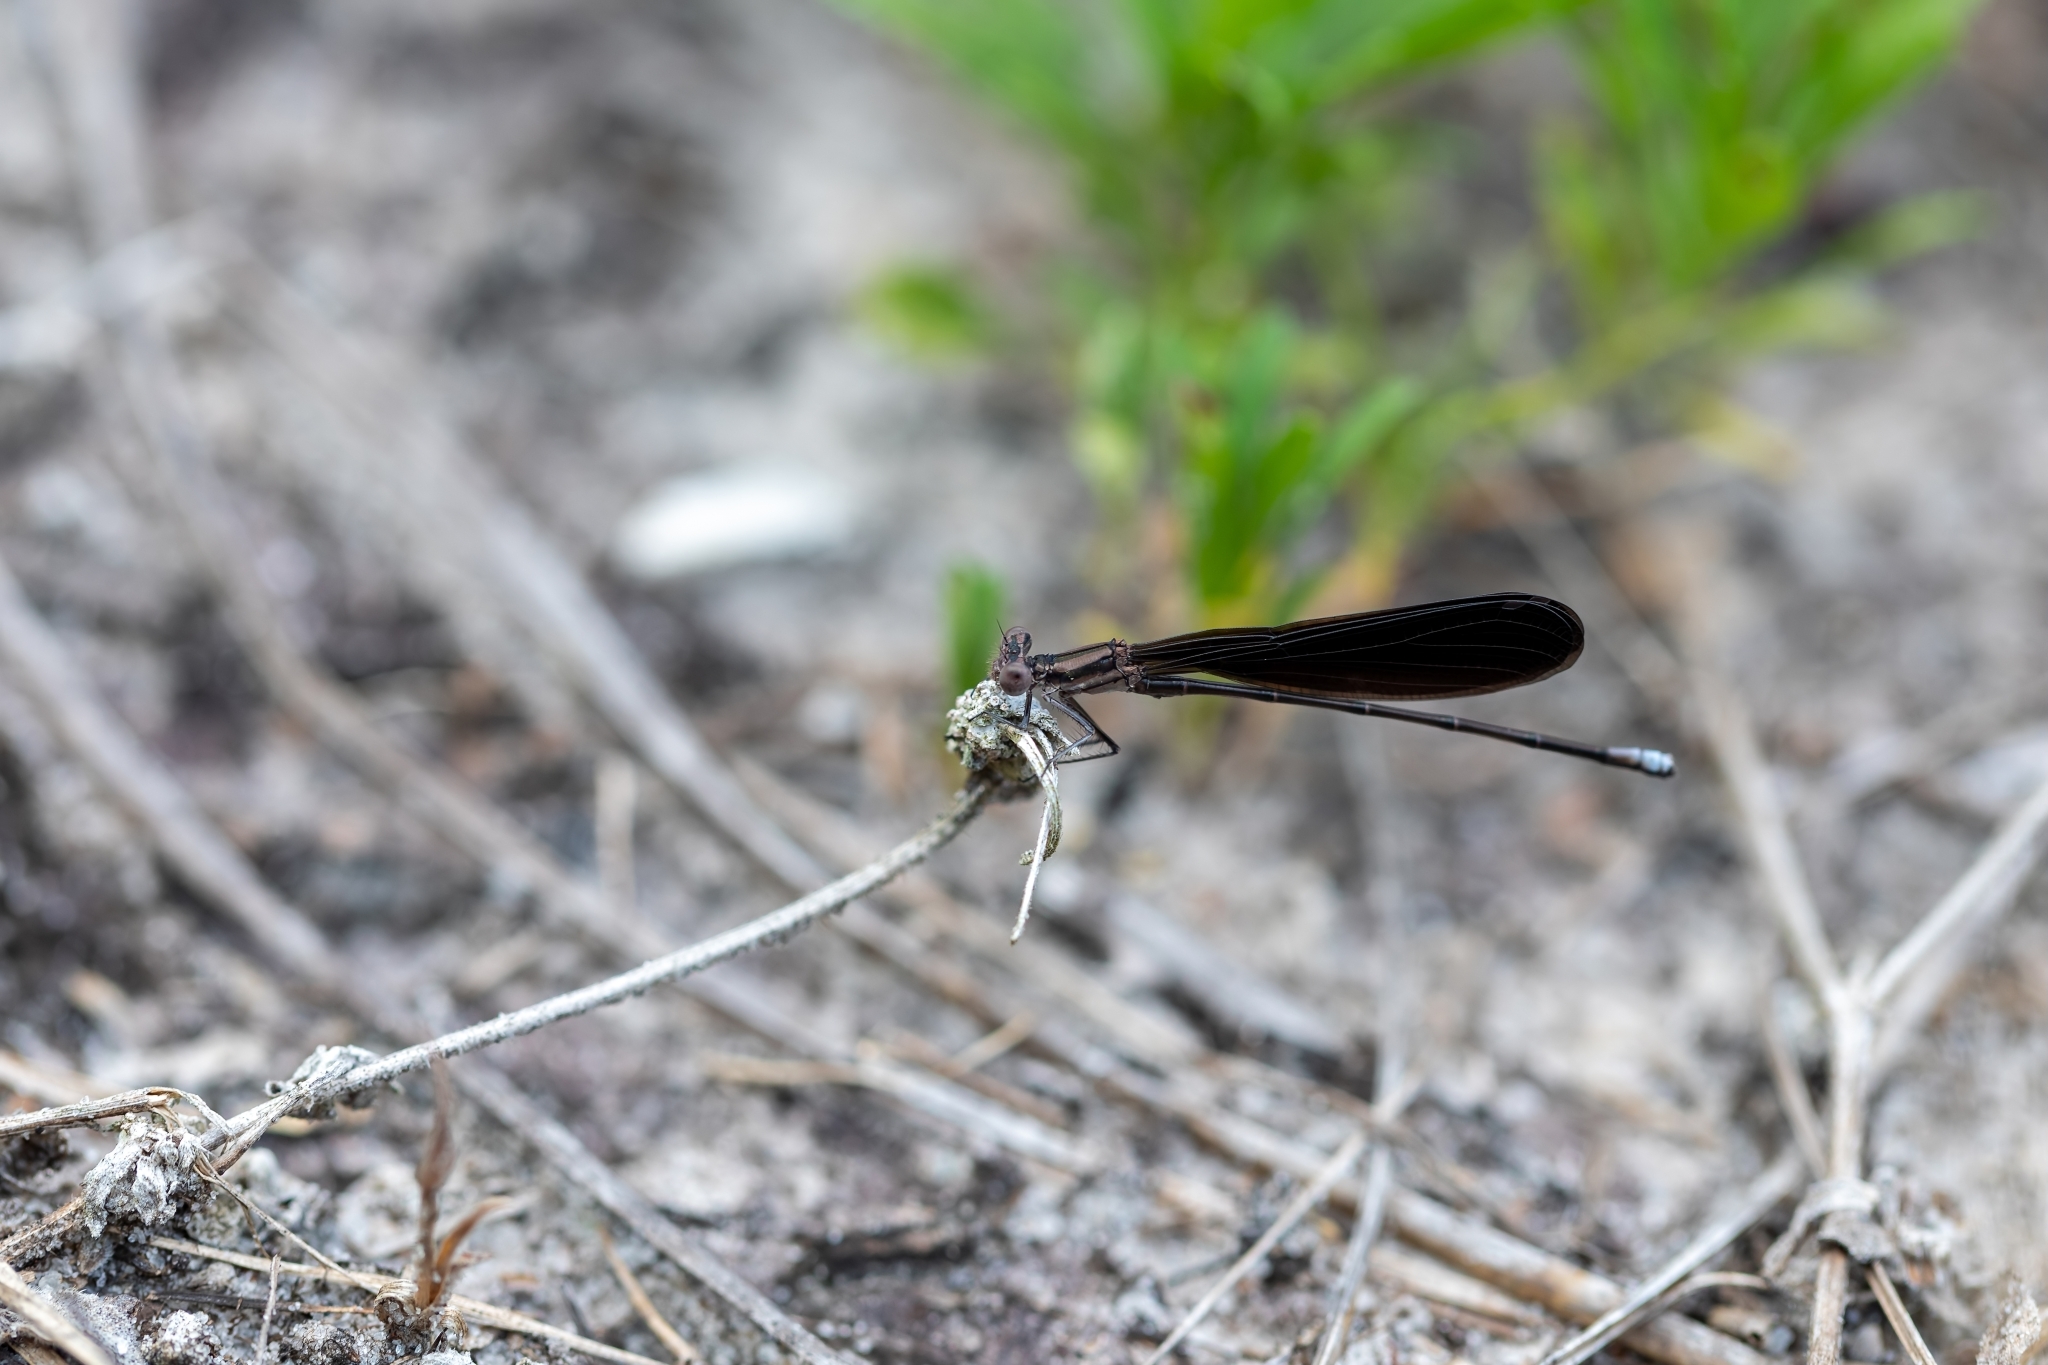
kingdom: Animalia
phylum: Arthropoda
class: Insecta
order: Odonata
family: Coenagrionidae
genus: Argia
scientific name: Argia fumipennis
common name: Variable dancer
